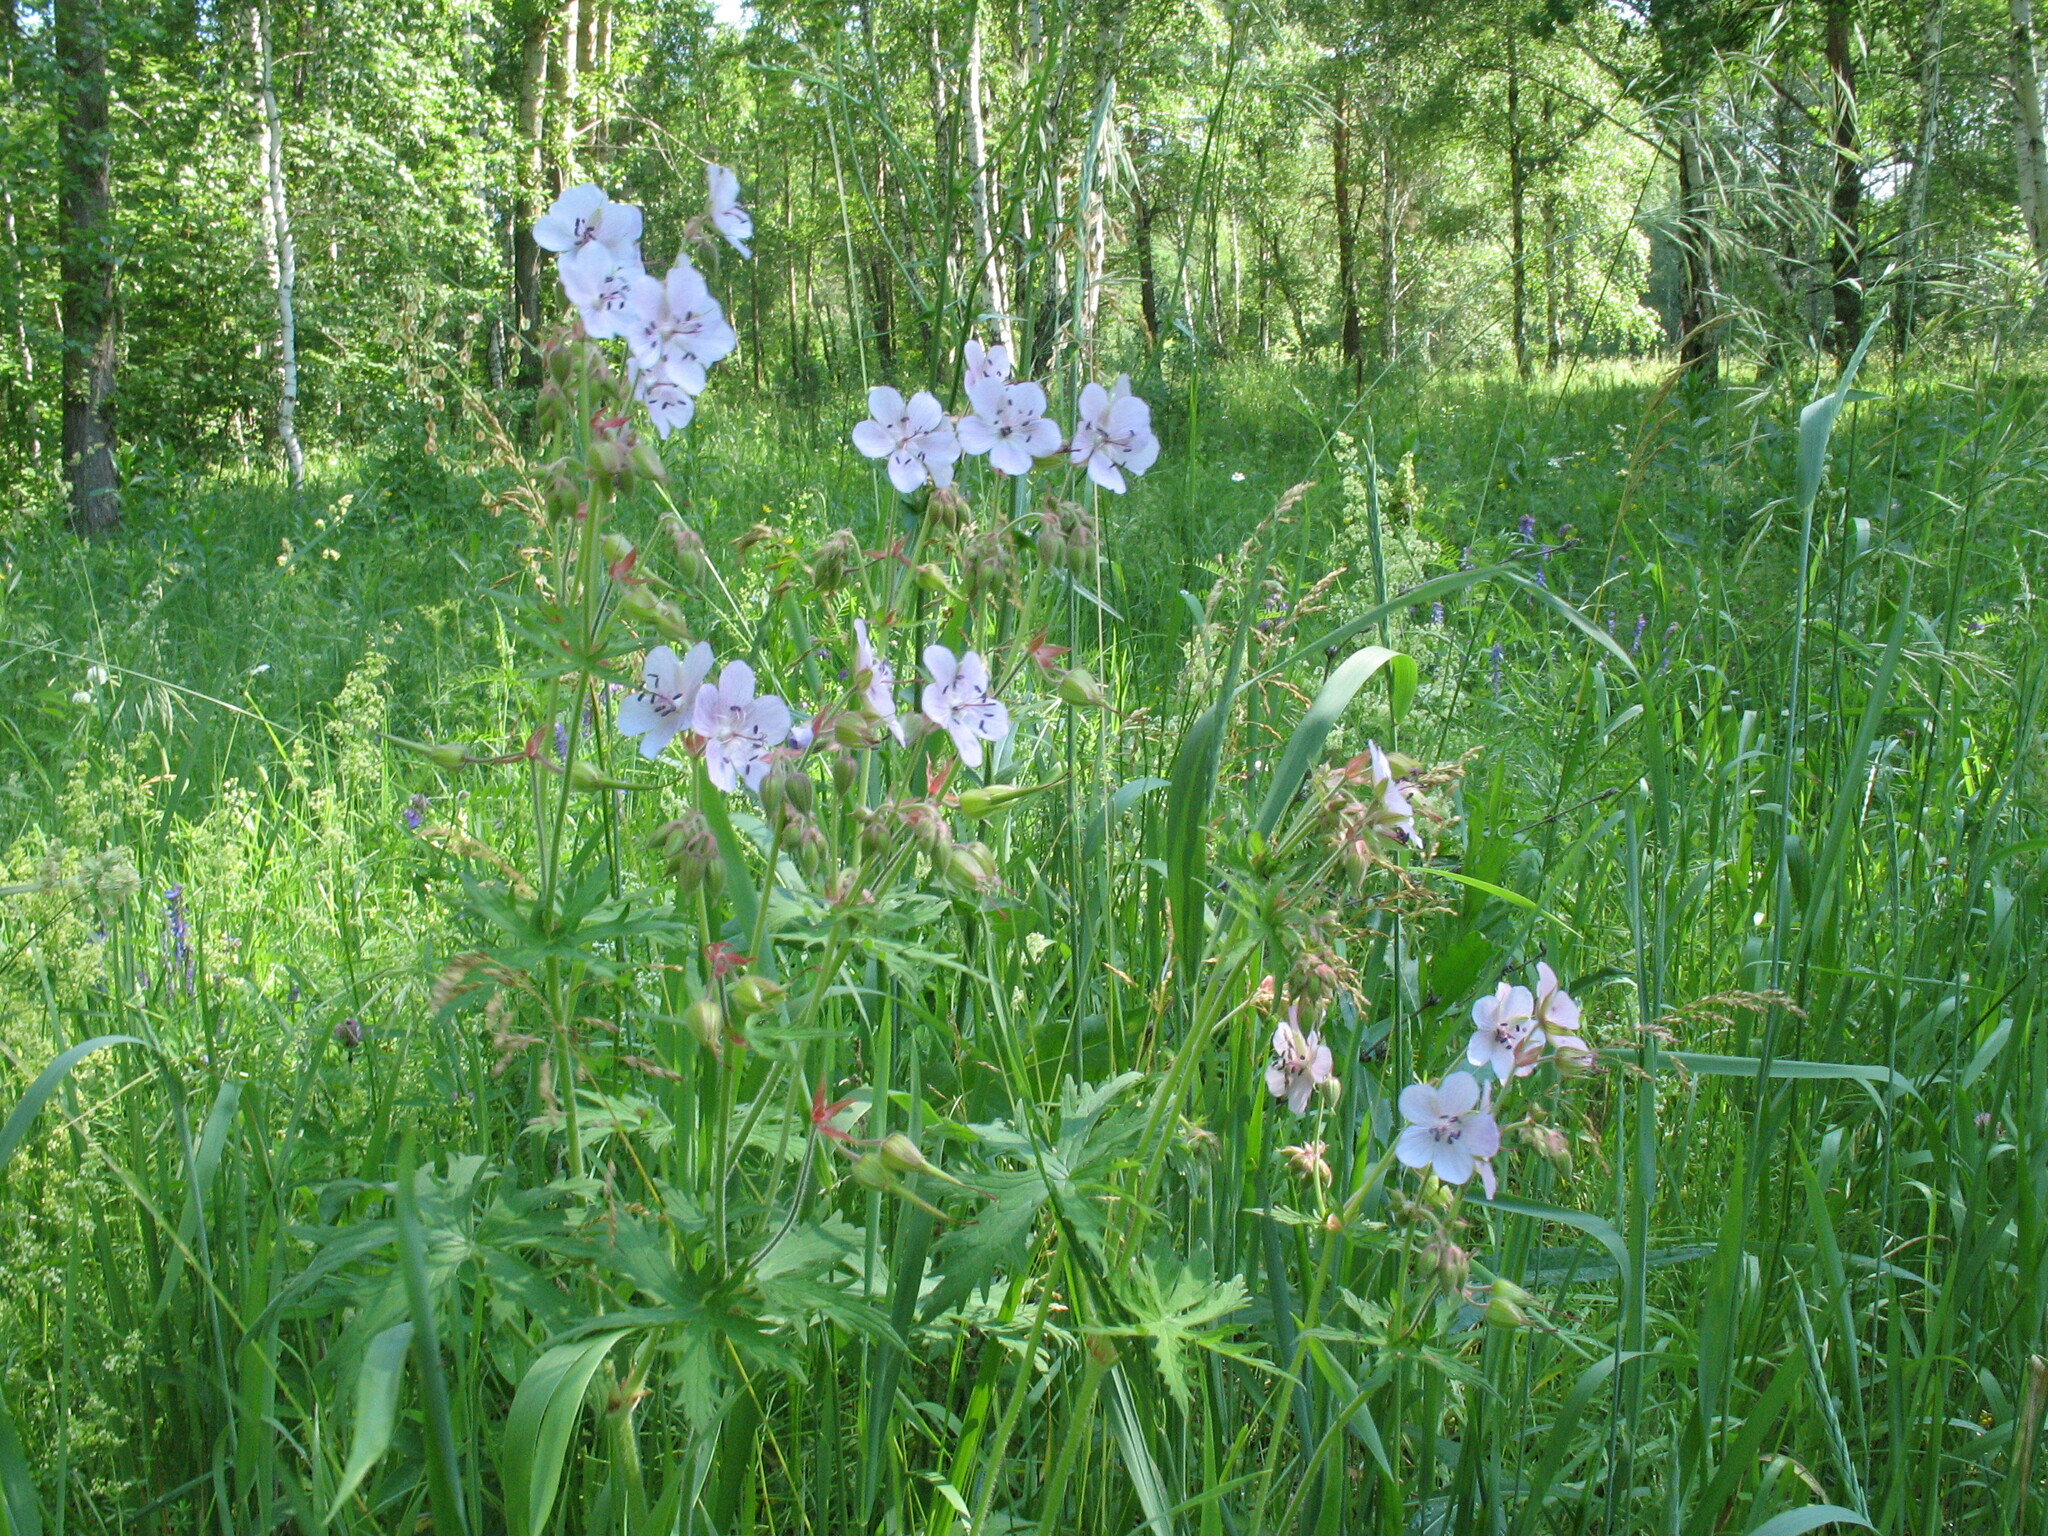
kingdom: Plantae
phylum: Tracheophyta
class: Magnoliopsida
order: Geraniales
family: Geraniaceae
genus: Geranium
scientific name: Geranium pratense
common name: Meadow crane's-bill
